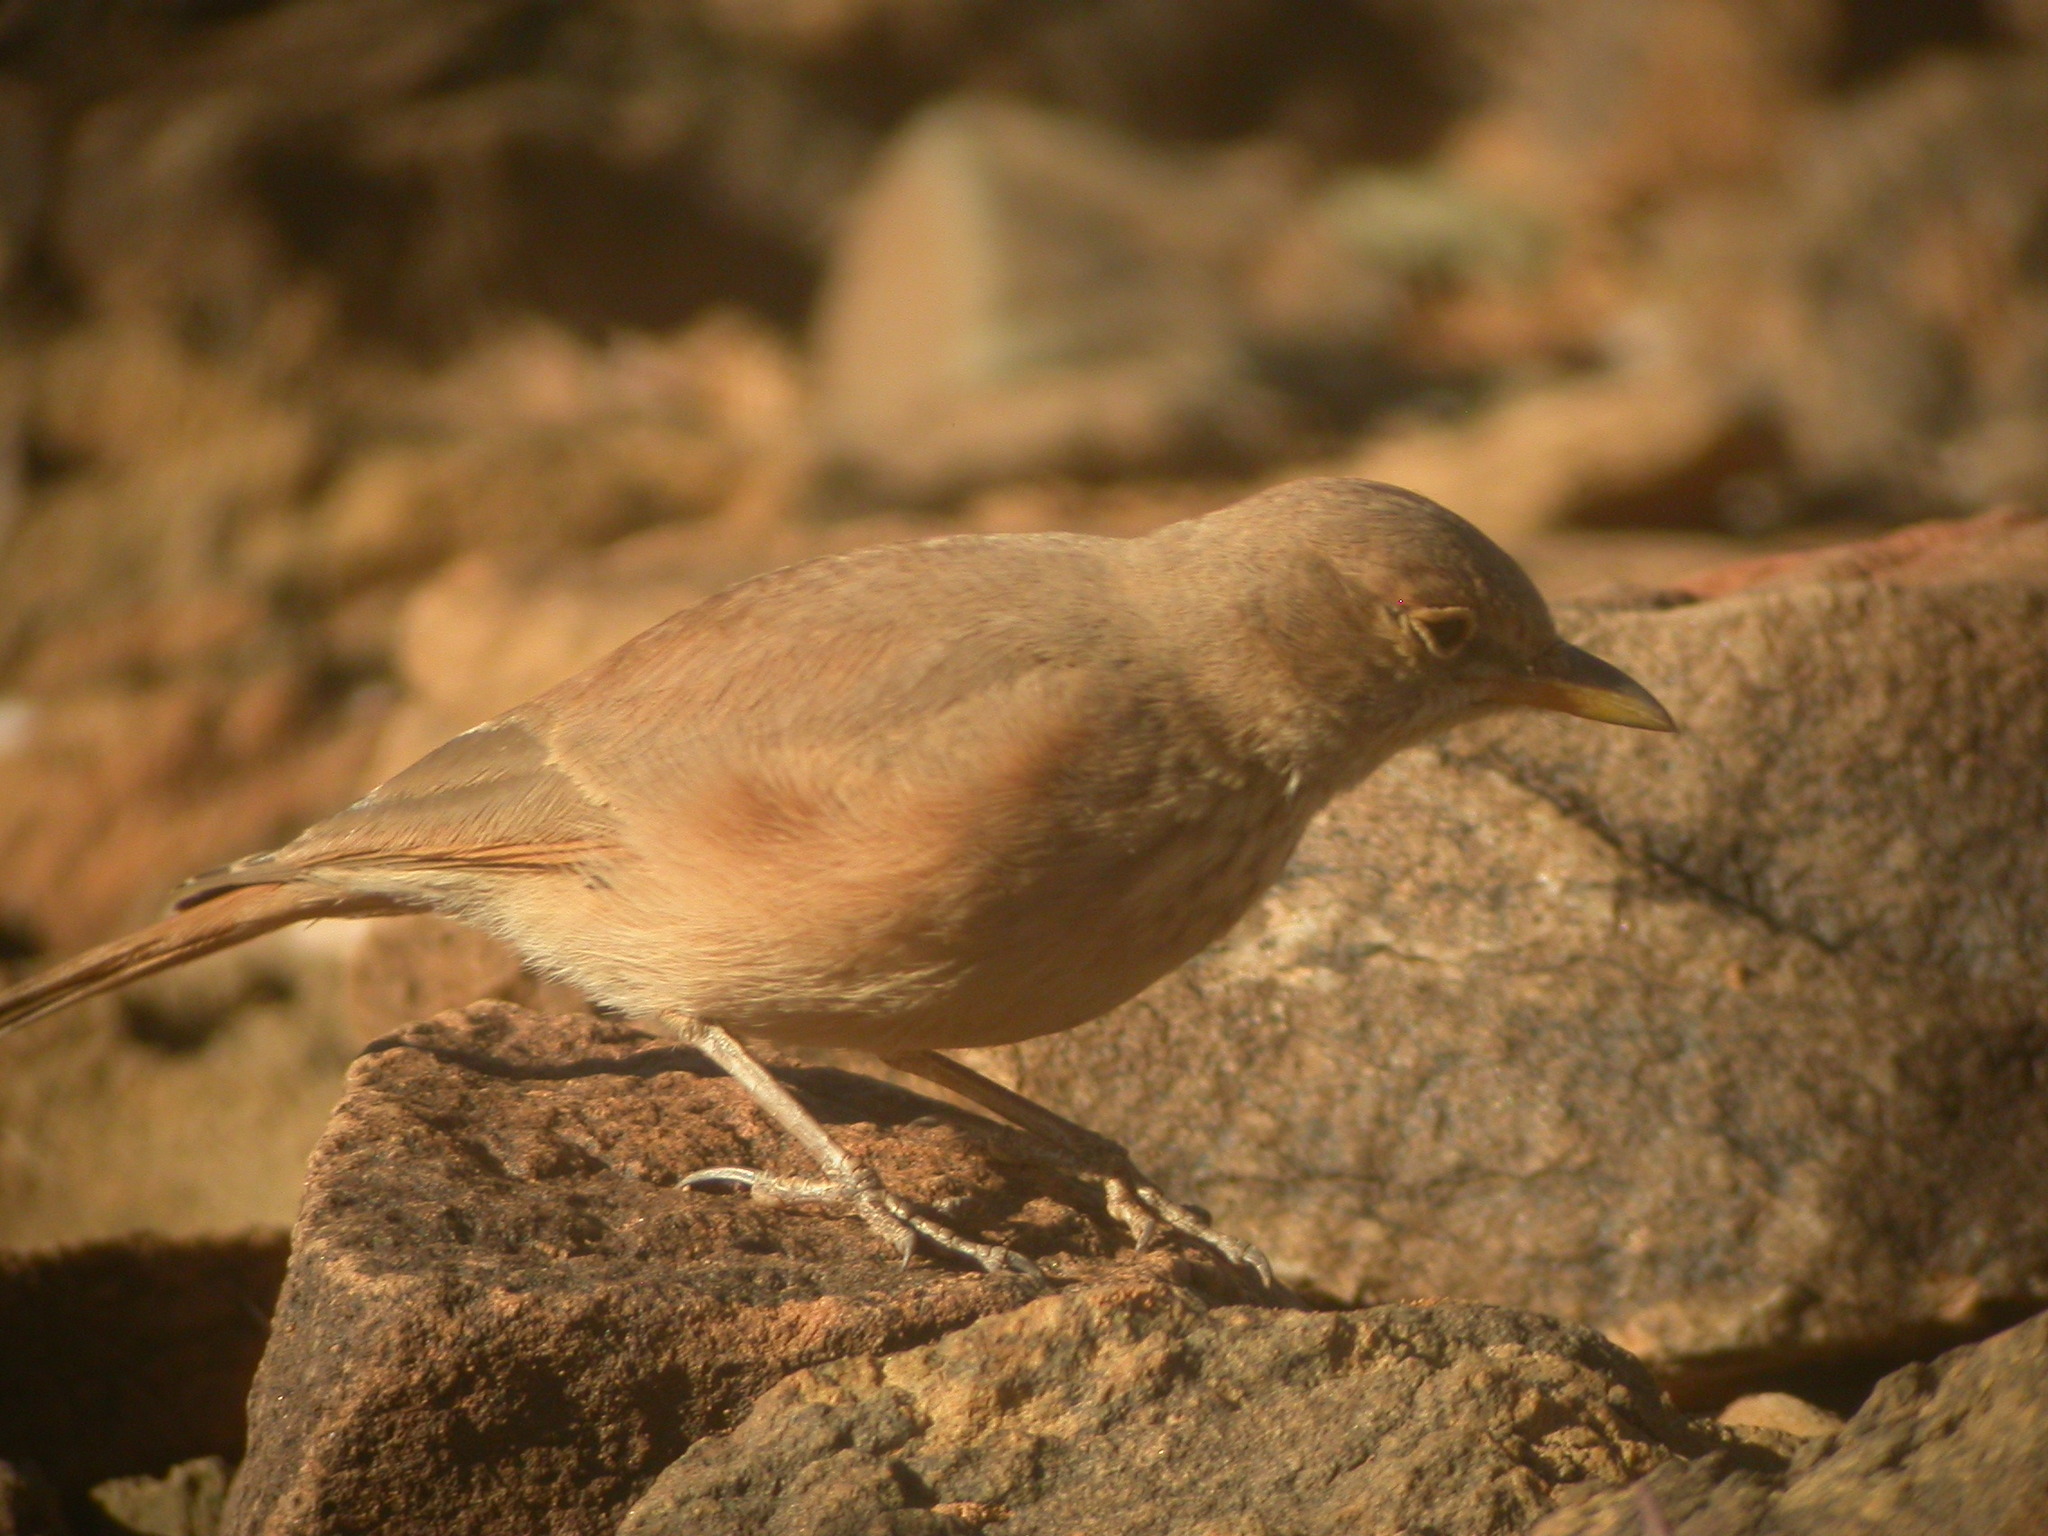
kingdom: Animalia
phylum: Chordata
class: Aves
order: Passeriformes
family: Alaudidae
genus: Ammomanes
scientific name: Ammomanes deserti
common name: Desert lark
